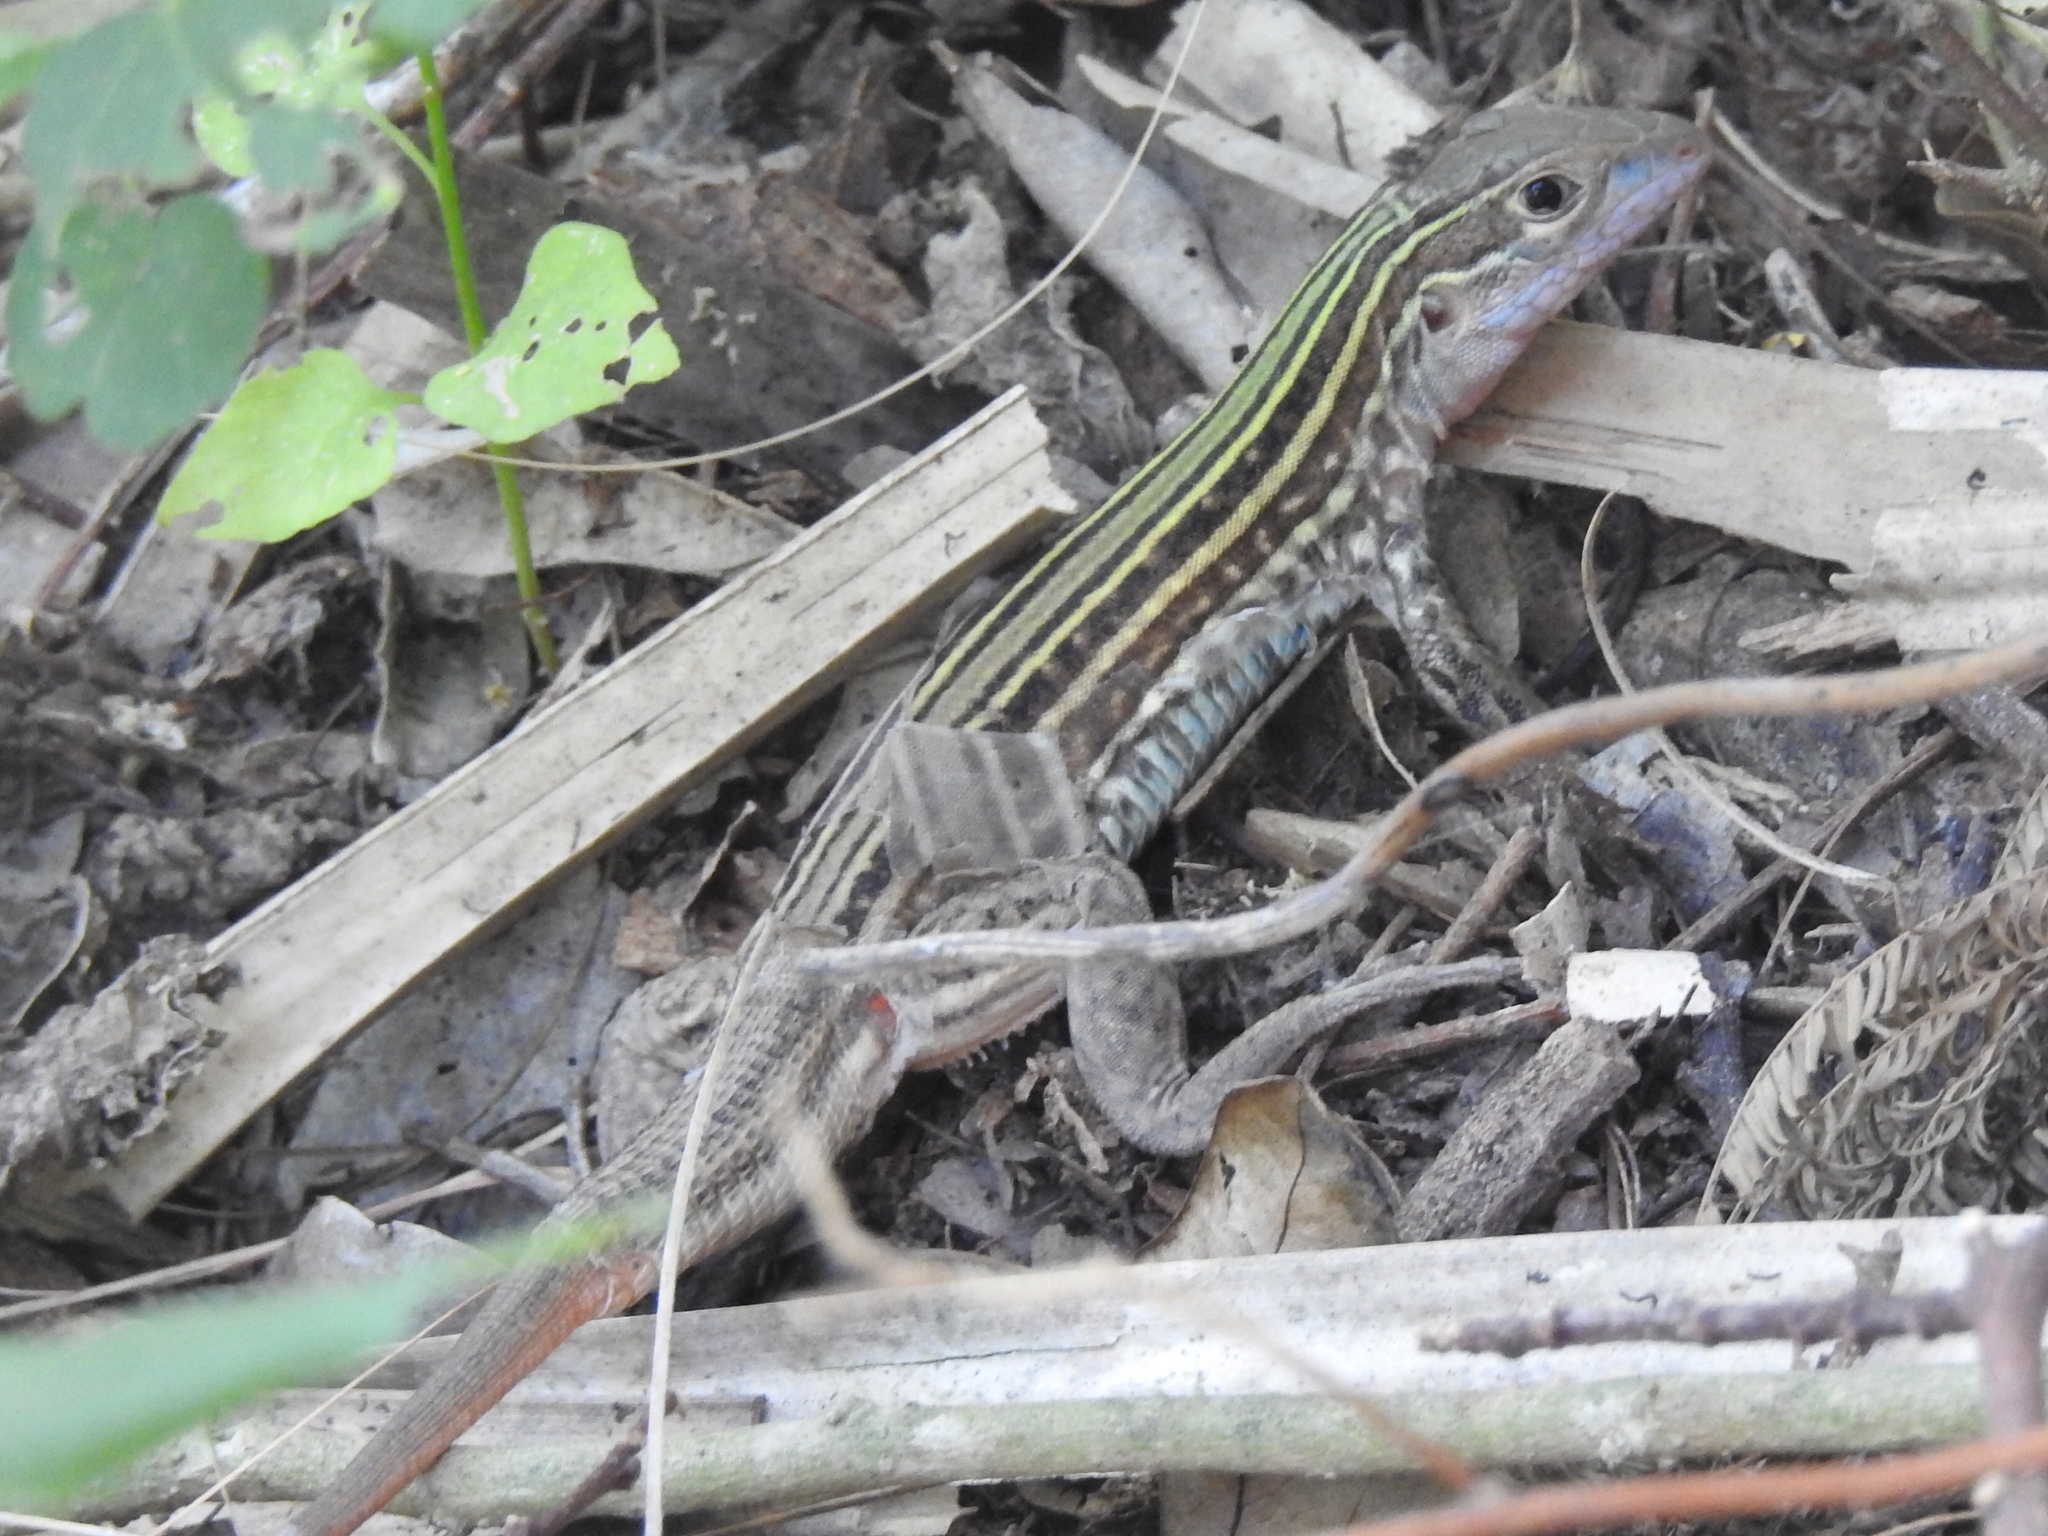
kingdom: Animalia
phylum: Chordata
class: Squamata
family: Teiidae
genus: Aspidoscelis
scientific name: Aspidoscelis gularis
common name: Eastern spotted whiptail
